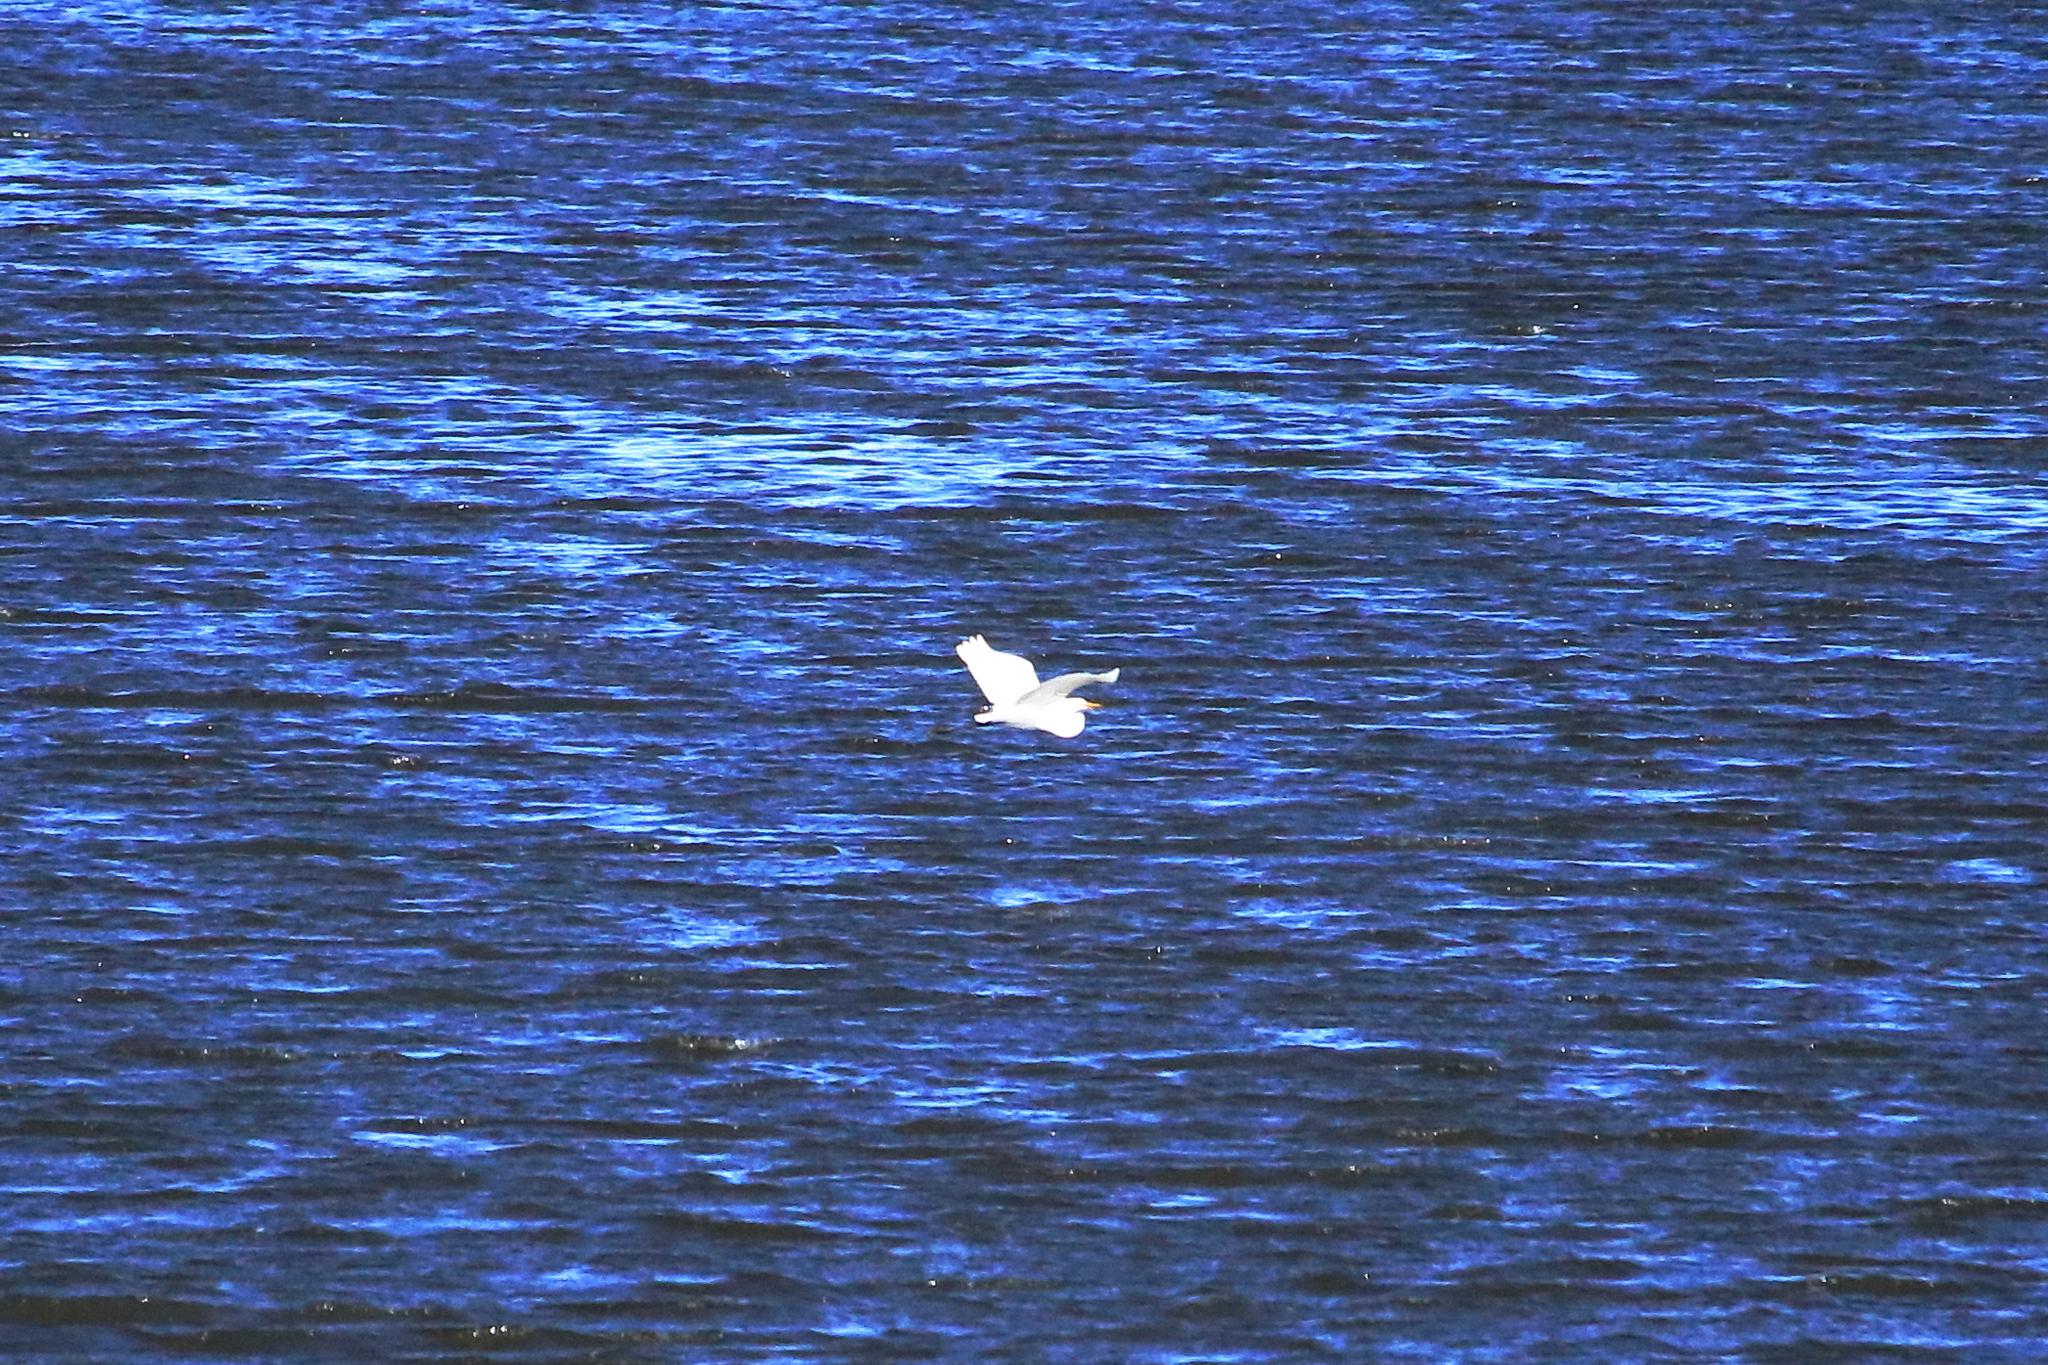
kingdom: Animalia
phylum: Chordata
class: Aves
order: Pelecaniformes
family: Ardeidae
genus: Ardea
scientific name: Ardea alba
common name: Great egret
